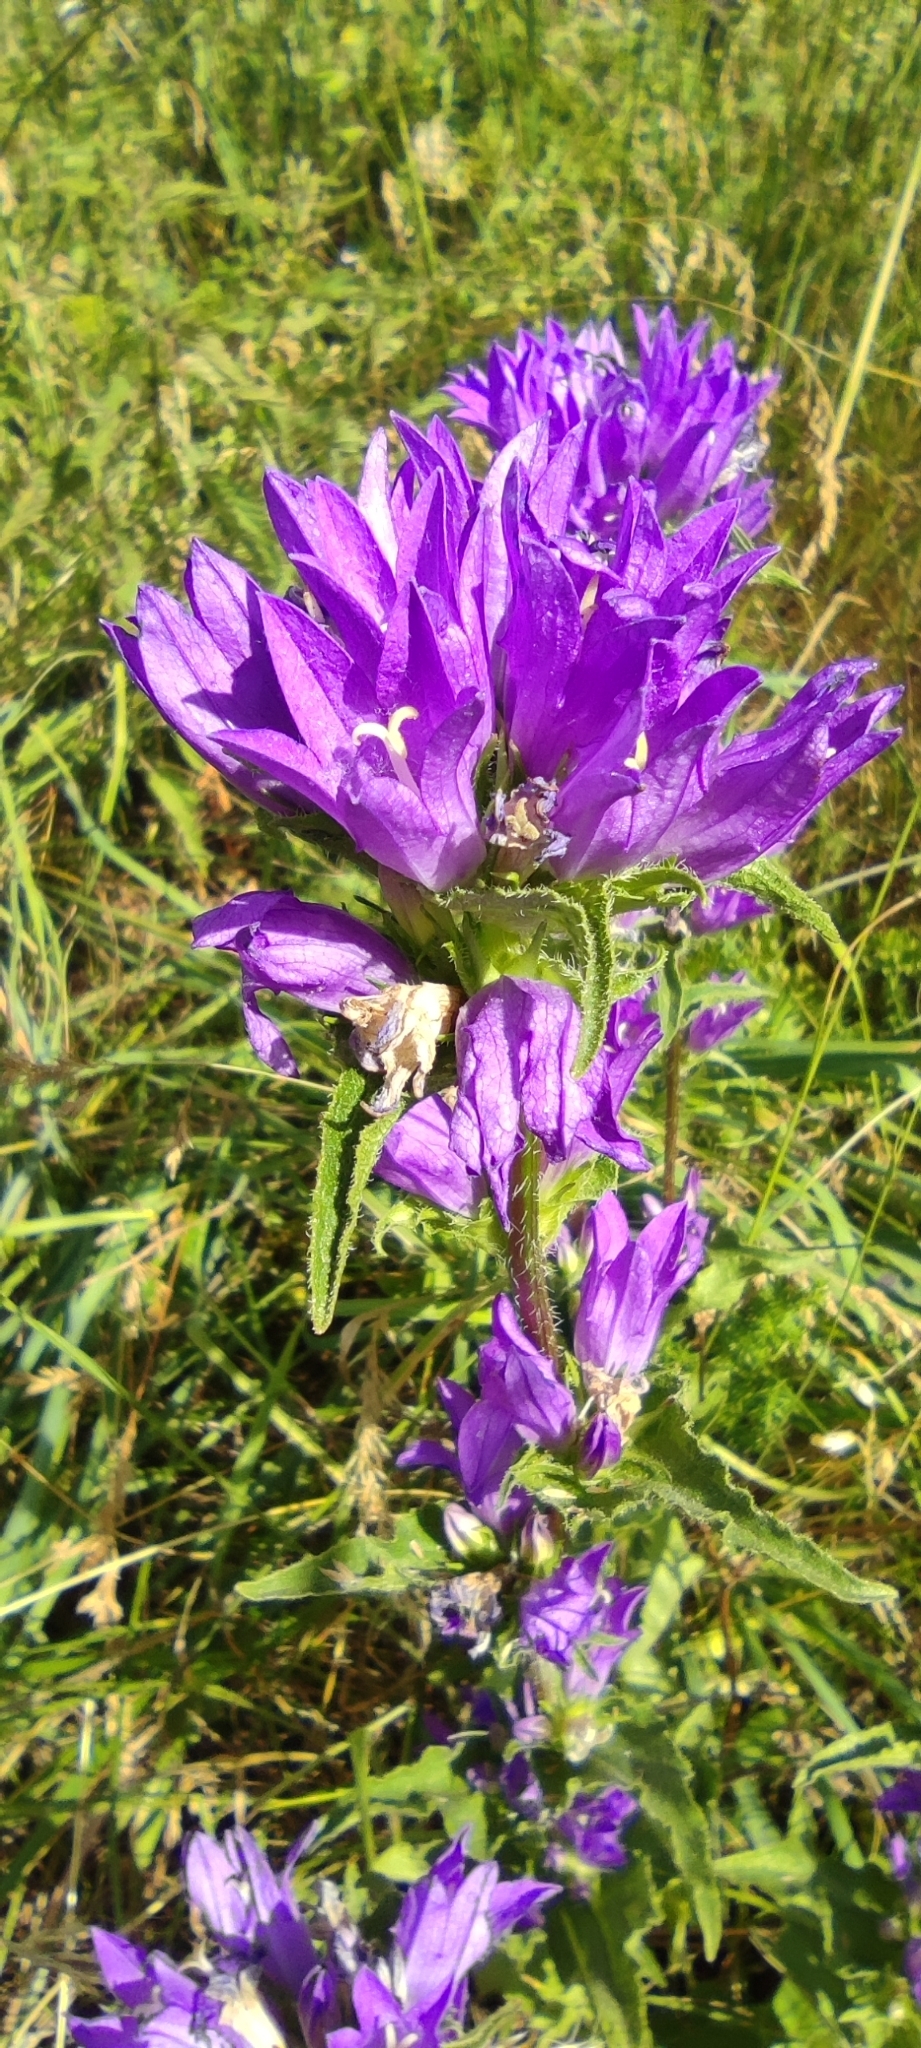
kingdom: Plantae
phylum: Tracheophyta
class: Magnoliopsida
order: Asterales
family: Campanulaceae
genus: Campanula
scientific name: Campanula glomerata
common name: Clustered bellflower
